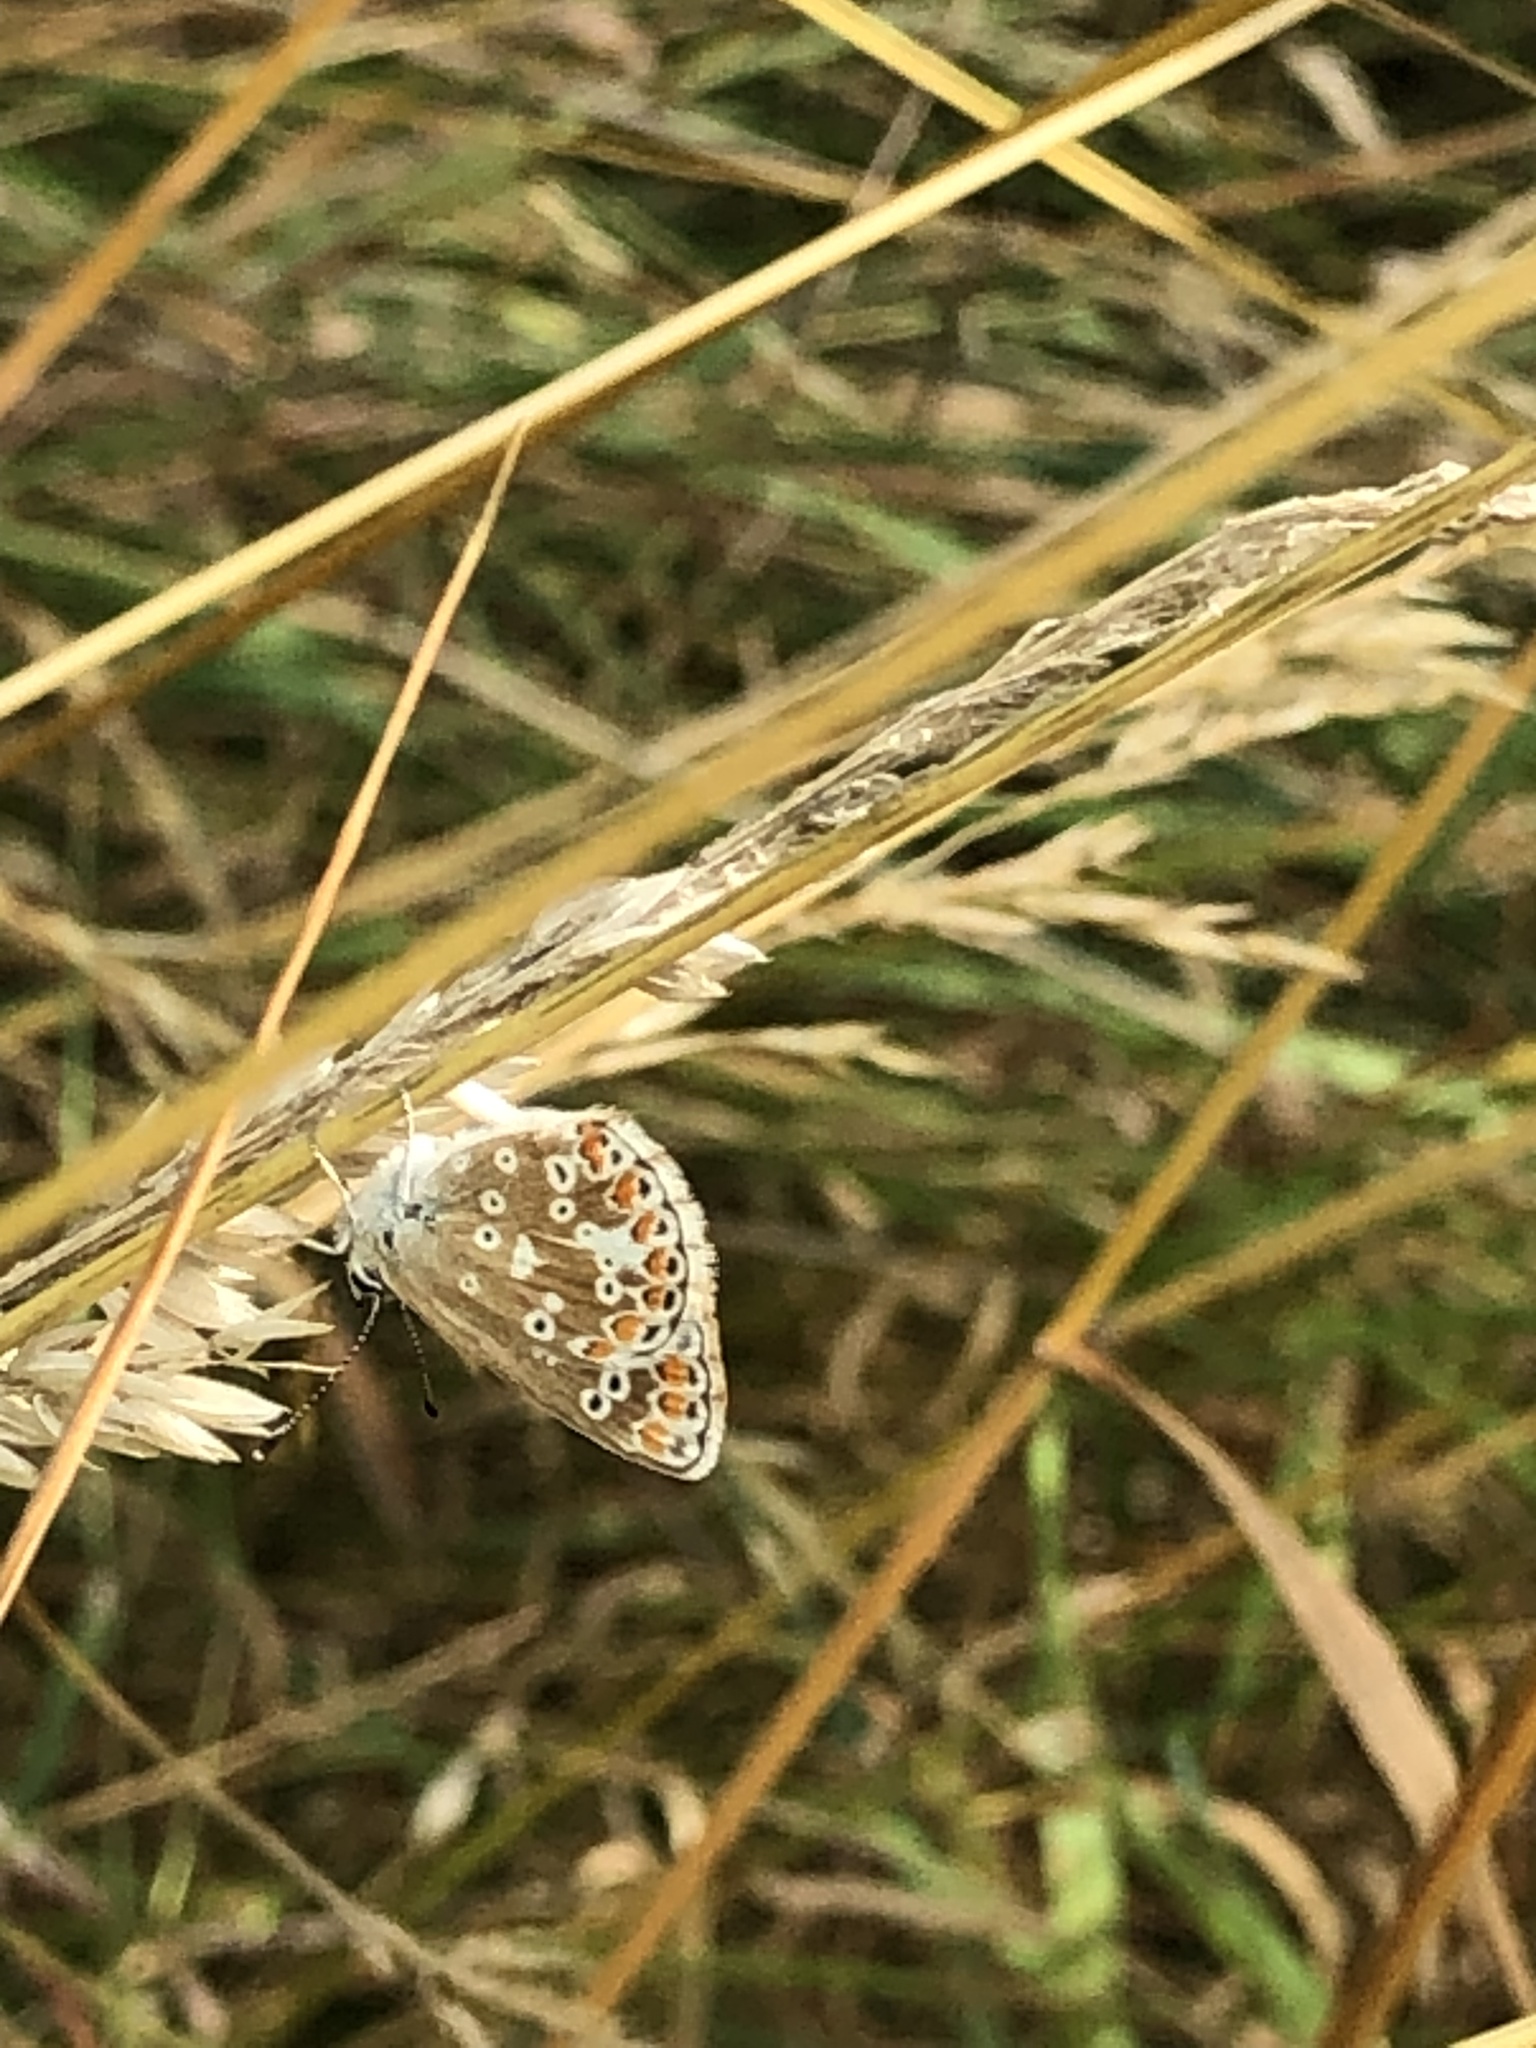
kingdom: Animalia
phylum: Arthropoda
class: Insecta
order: Lepidoptera
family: Lycaenidae
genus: Aricia
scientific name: Aricia agestis
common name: Brown argus
